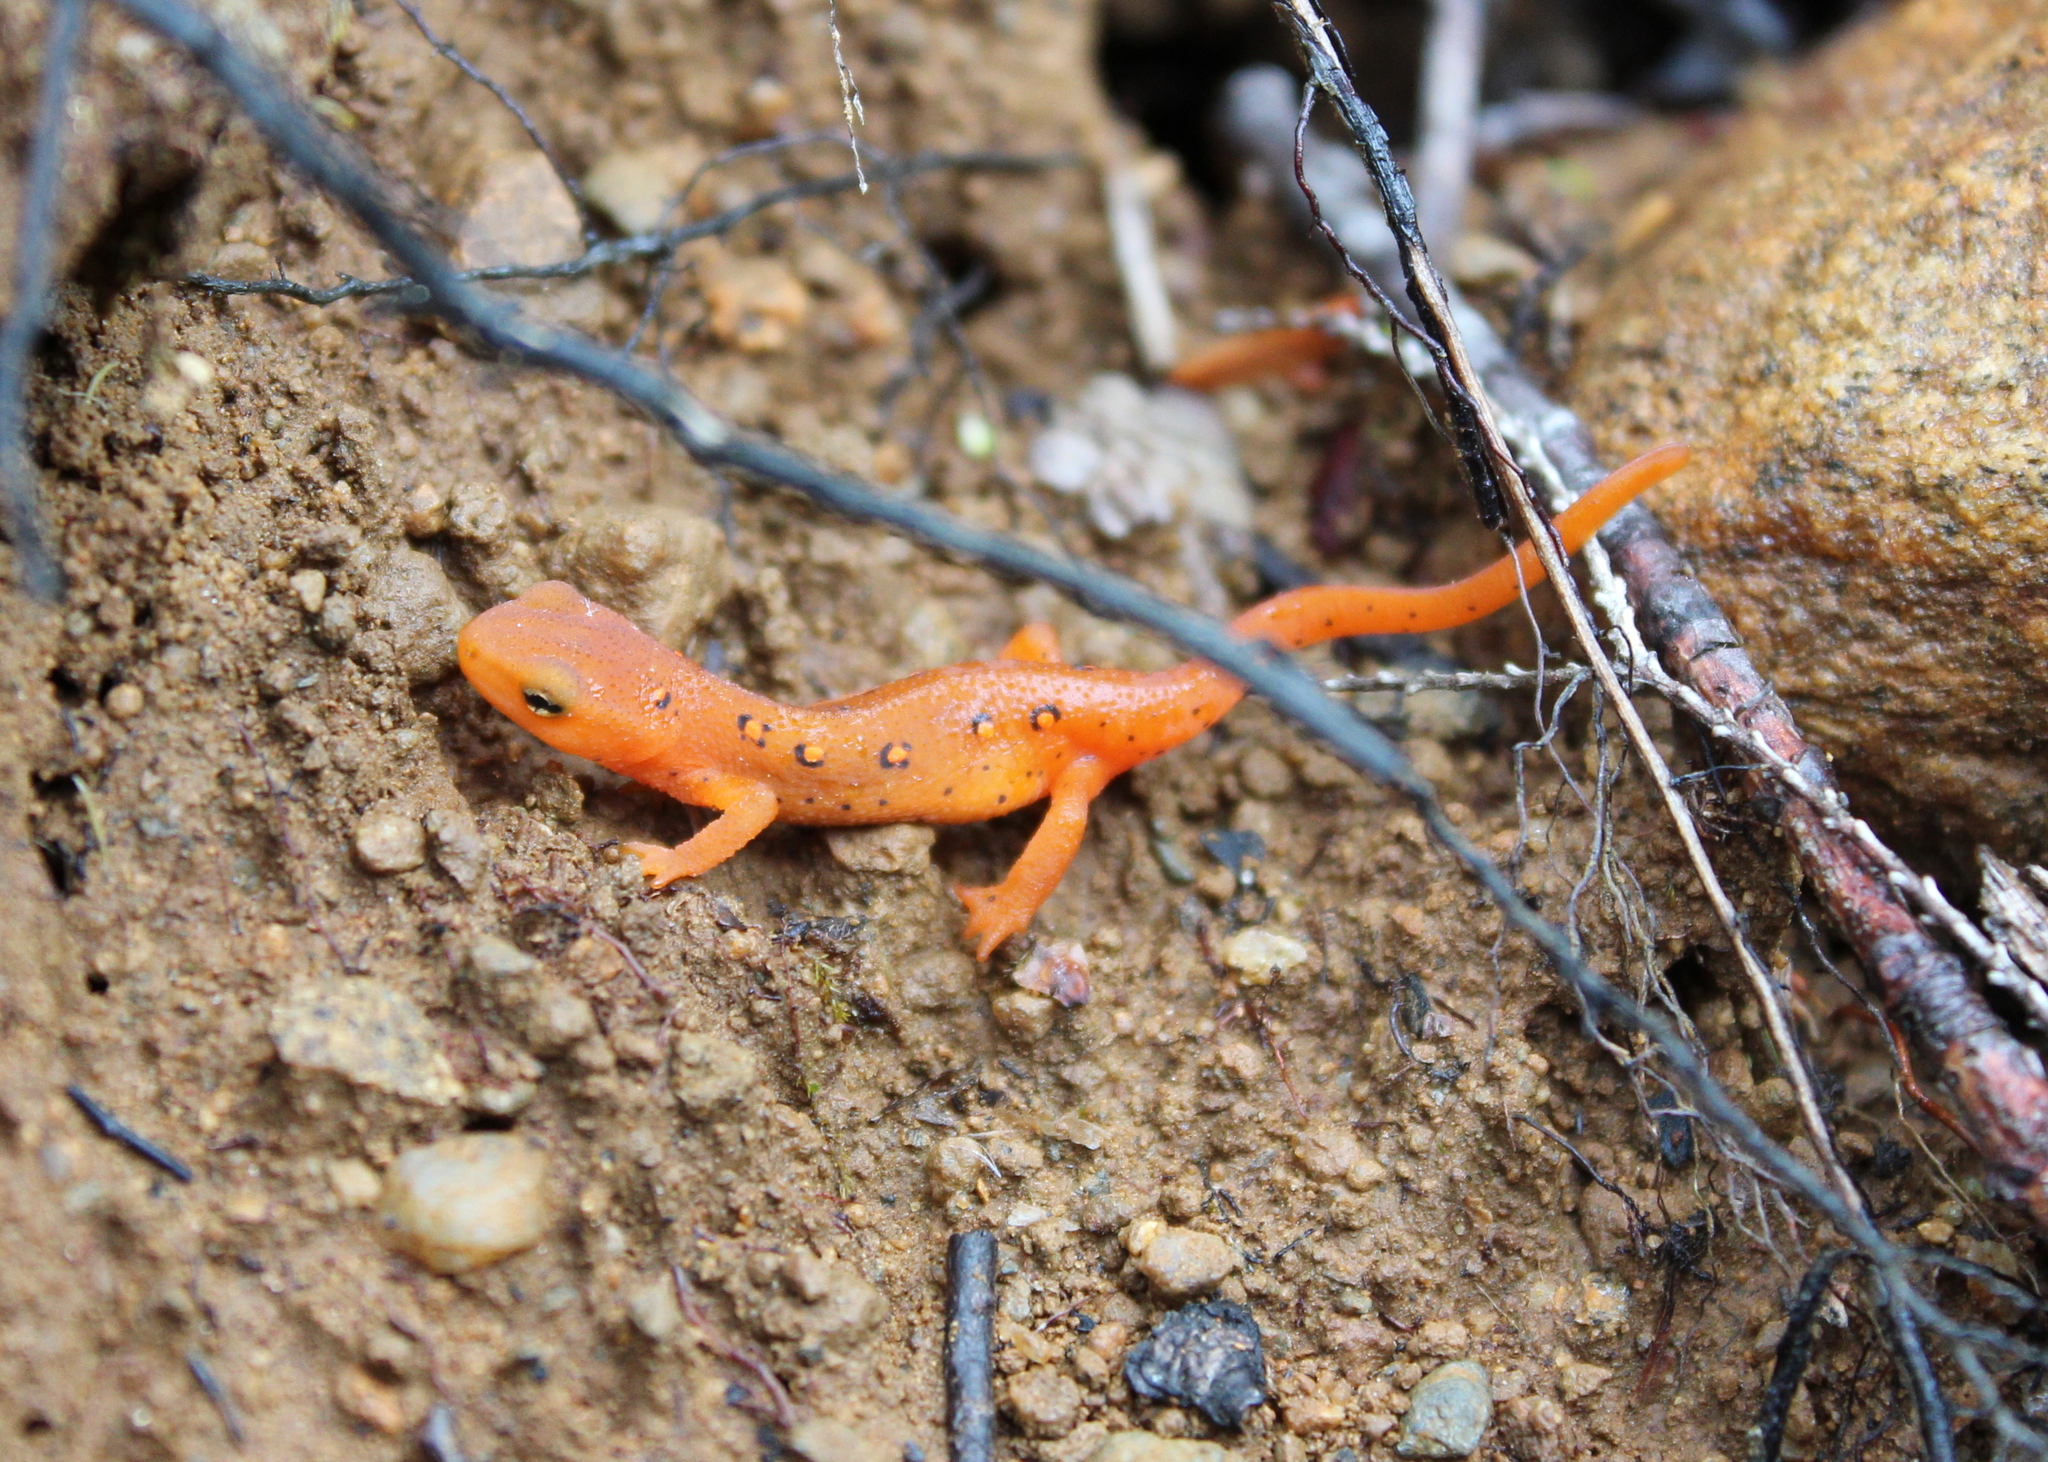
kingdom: Animalia
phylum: Chordata
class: Amphibia
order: Caudata
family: Salamandridae
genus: Notophthalmus
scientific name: Notophthalmus viridescens
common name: Eastern newt
